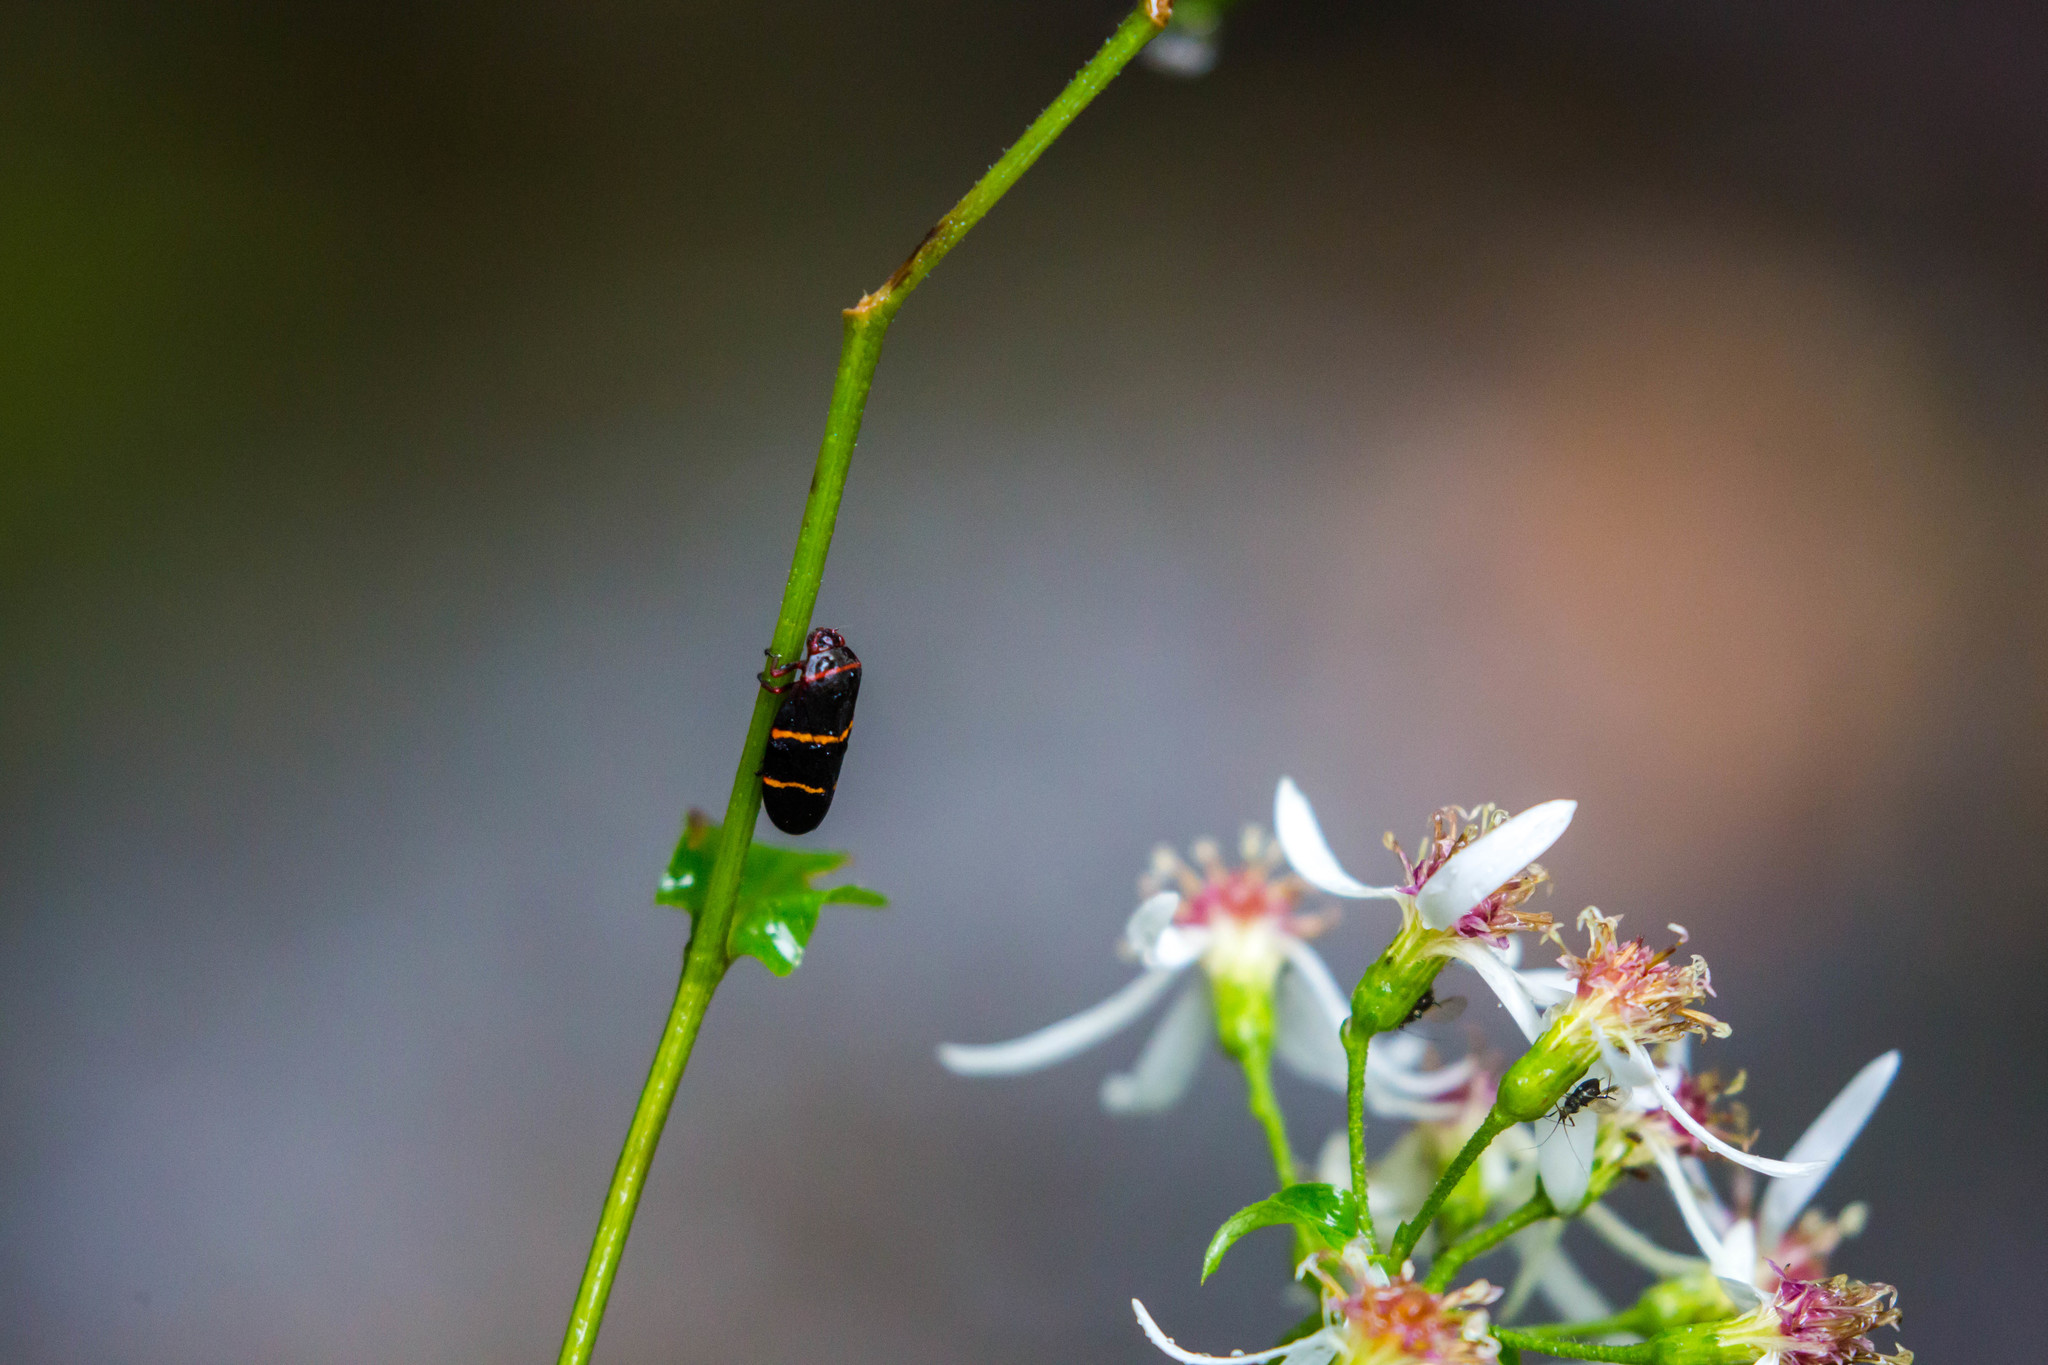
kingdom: Animalia
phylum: Arthropoda
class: Insecta
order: Hemiptera
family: Cercopidae
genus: Prosapia
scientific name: Prosapia bicincta
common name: Twolined spittlebug
